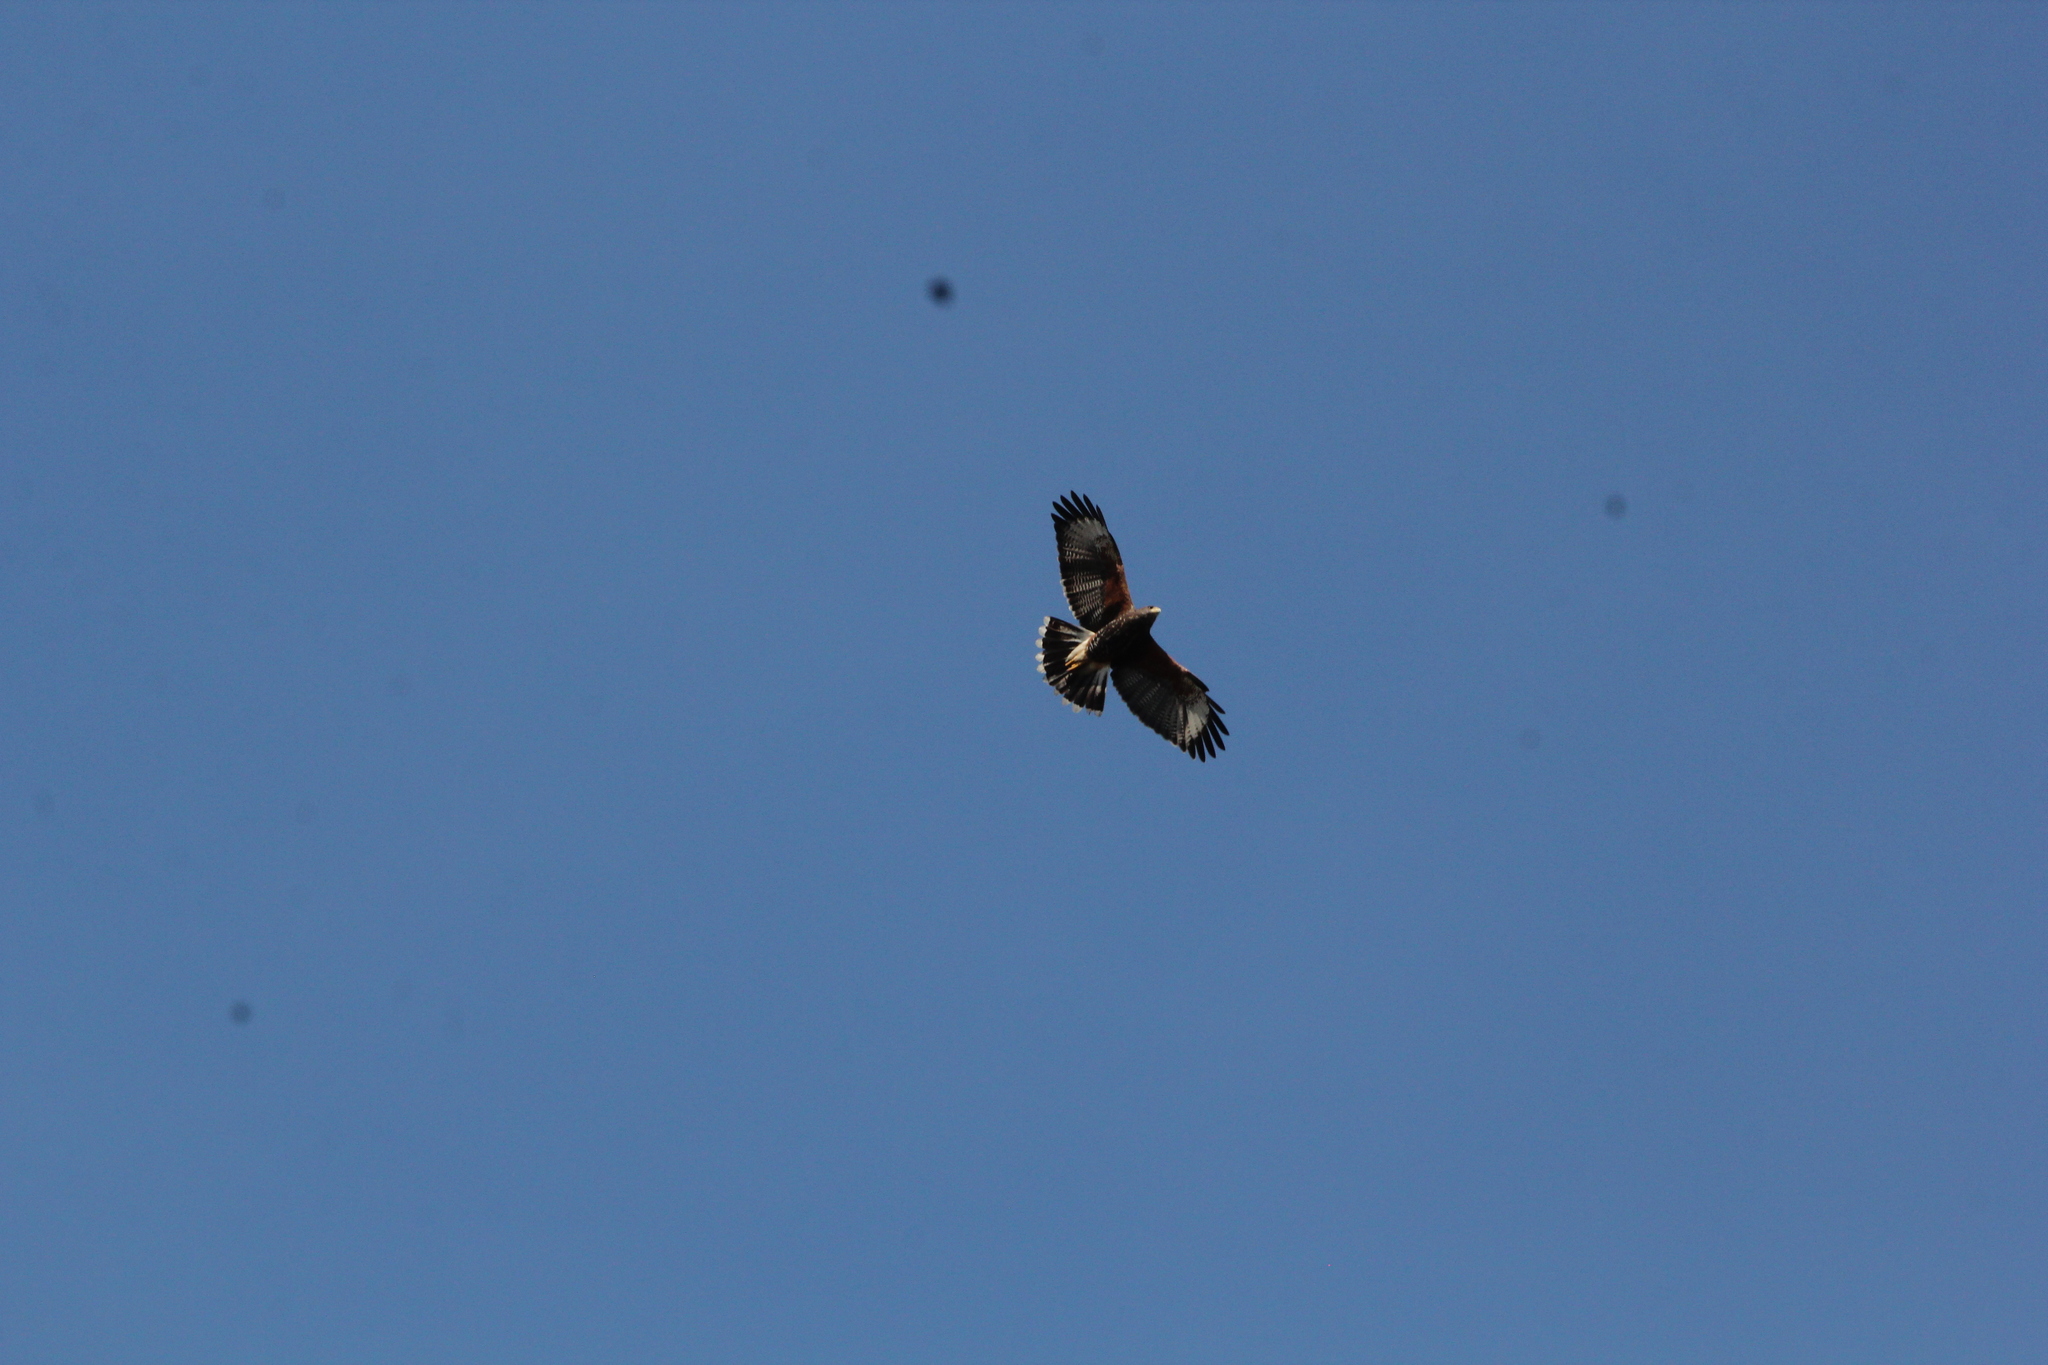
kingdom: Animalia
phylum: Chordata
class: Aves
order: Accipitriformes
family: Accipitridae
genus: Parabuteo
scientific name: Parabuteo unicinctus
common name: Harris's hawk
